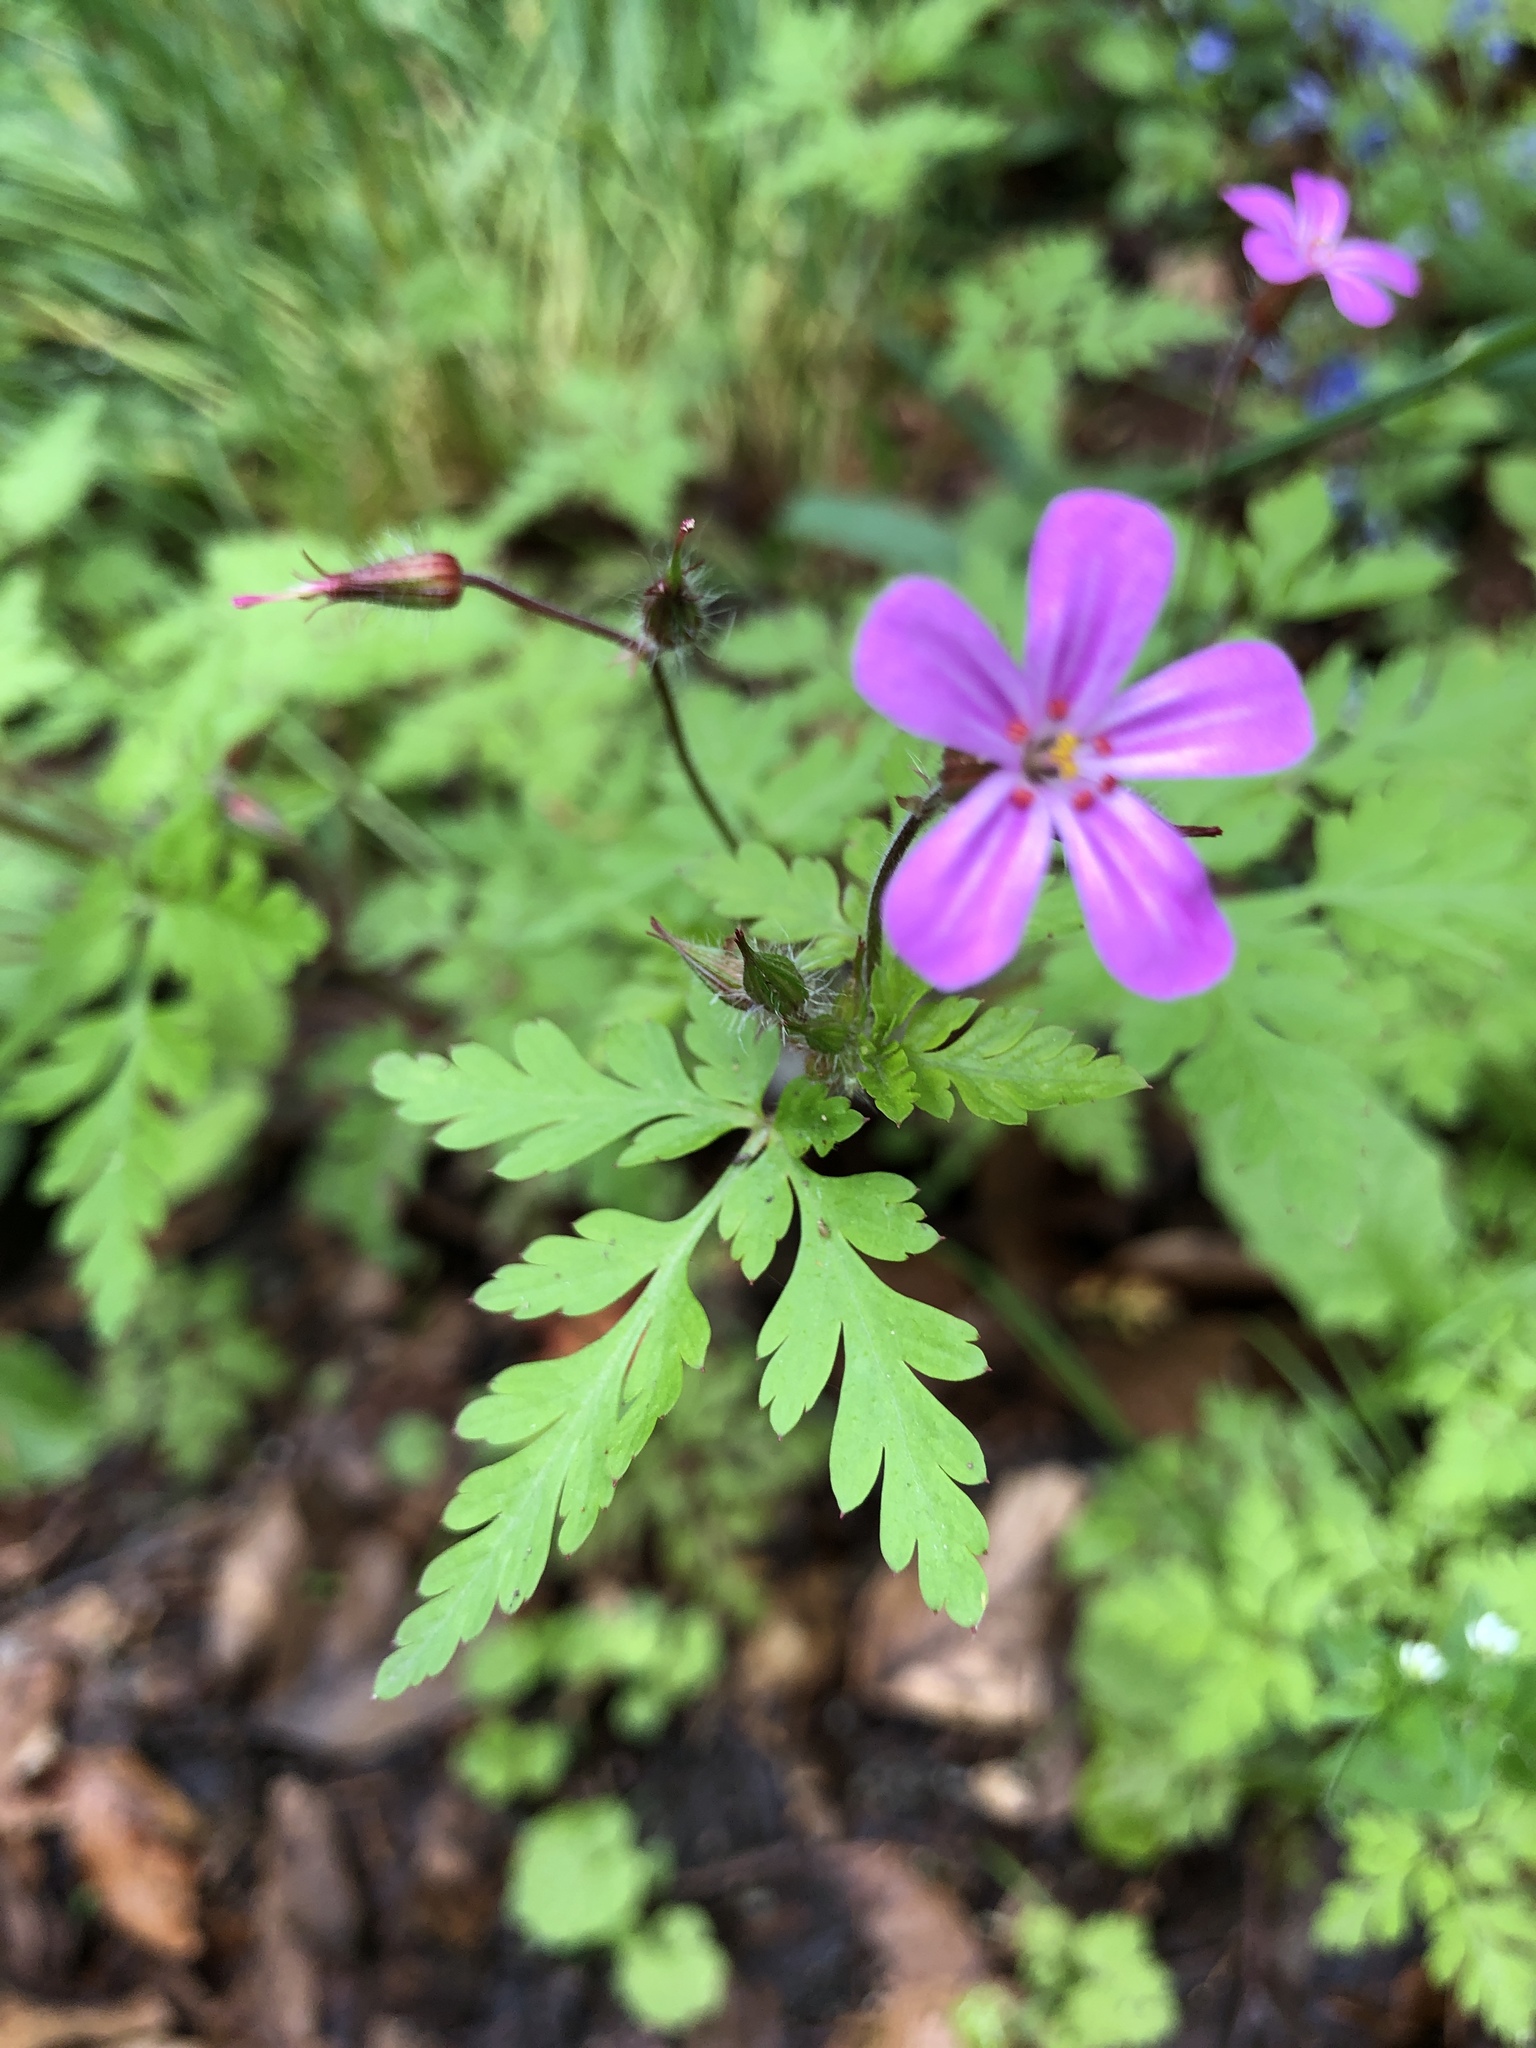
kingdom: Plantae
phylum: Tracheophyta
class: Magnoliopsida
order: Geraniales
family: Geraniaceae
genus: Geranium
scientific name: Geranium robertianum
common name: Herb-robert
